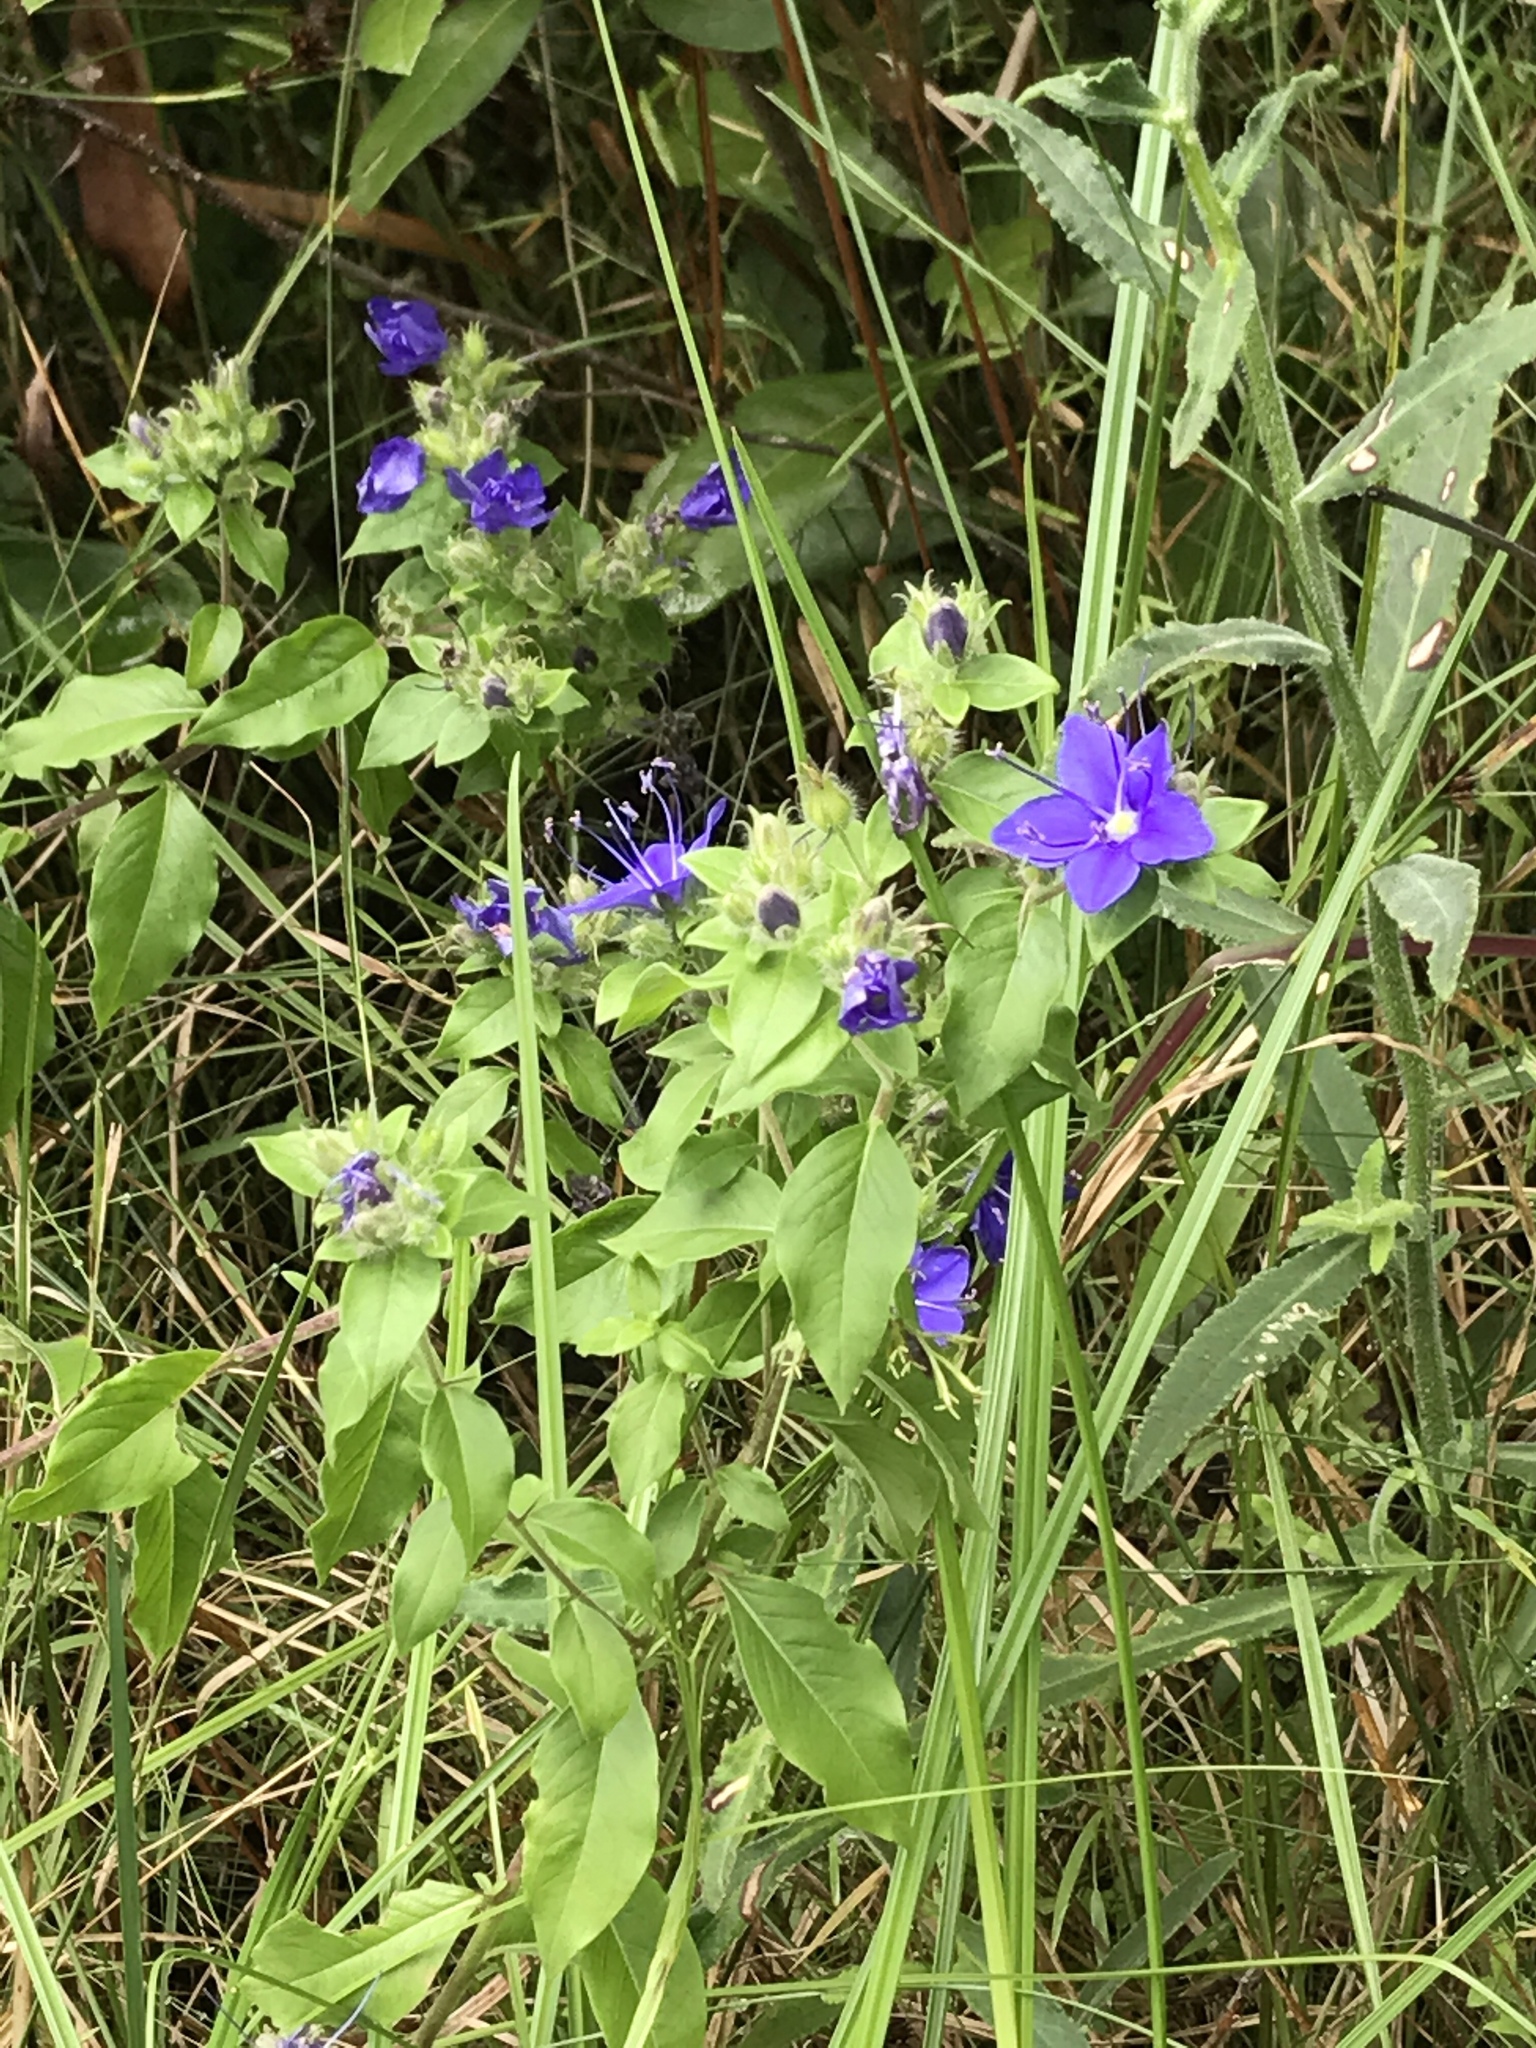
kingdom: Plantae
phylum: Tracheophyta
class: Magnoliopsida
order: Solanales
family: Hydroleaceae
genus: Hydrolea
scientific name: Hydrolea ovata
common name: Ovate false fiddleleaf
